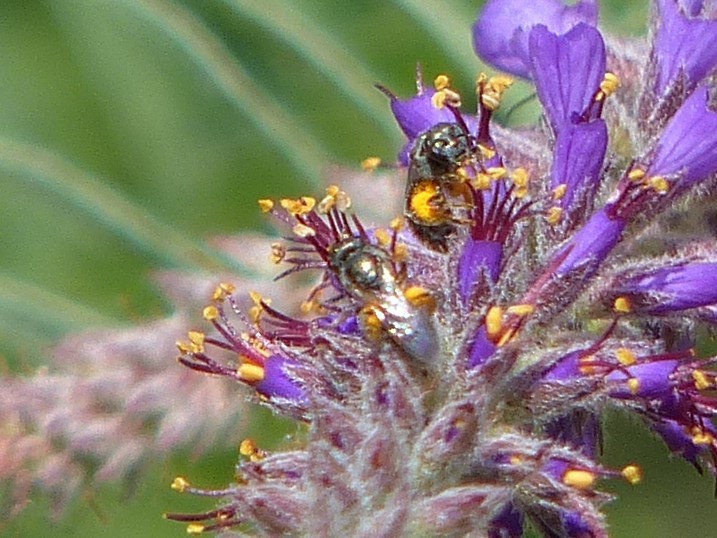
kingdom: Animalia
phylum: Arthropoda
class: Insecta
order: Hymenoptera
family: Halictidae
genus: Dialictus
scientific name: Dialictus
